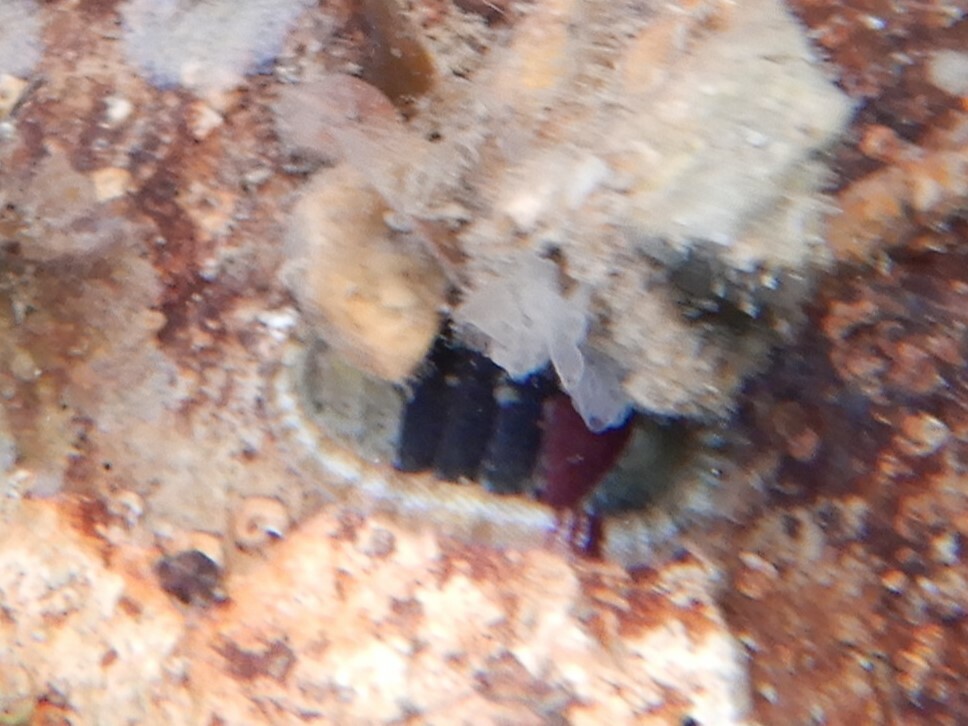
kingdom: Animalia
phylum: Mollusca
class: Polyplacophora
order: Chitonida
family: Chitonidae
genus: Rhyssoplax
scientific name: Rhyssoplax olivacea
